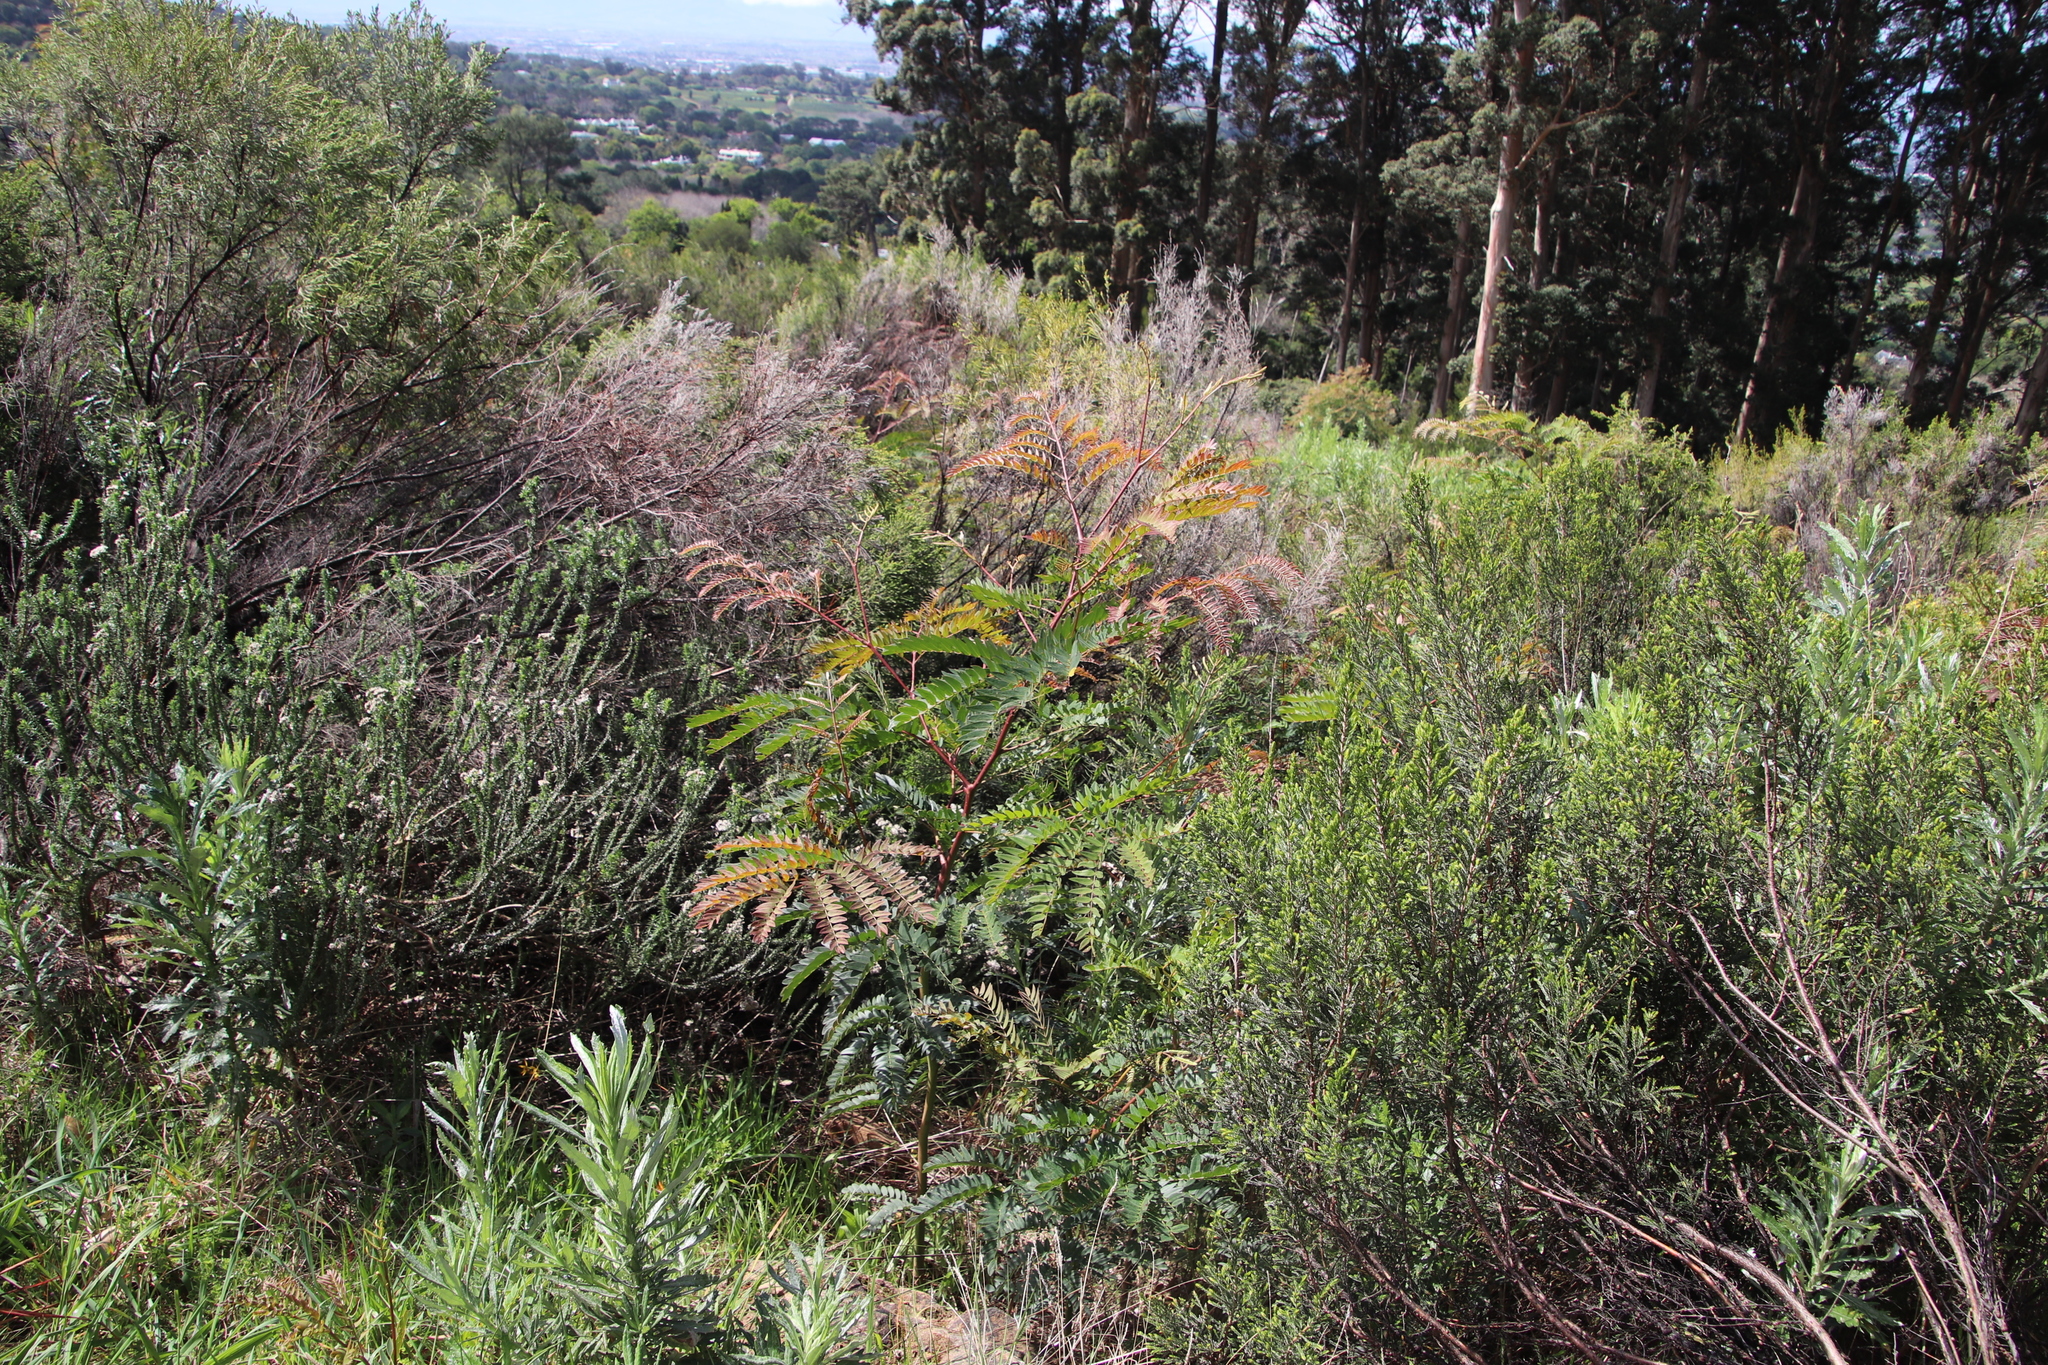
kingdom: Plantae
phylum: Tracheophyta
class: Magnoliopsida
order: Fabales
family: Fabaceae
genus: Acacia
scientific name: Acacia elata
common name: Cedar wattle
